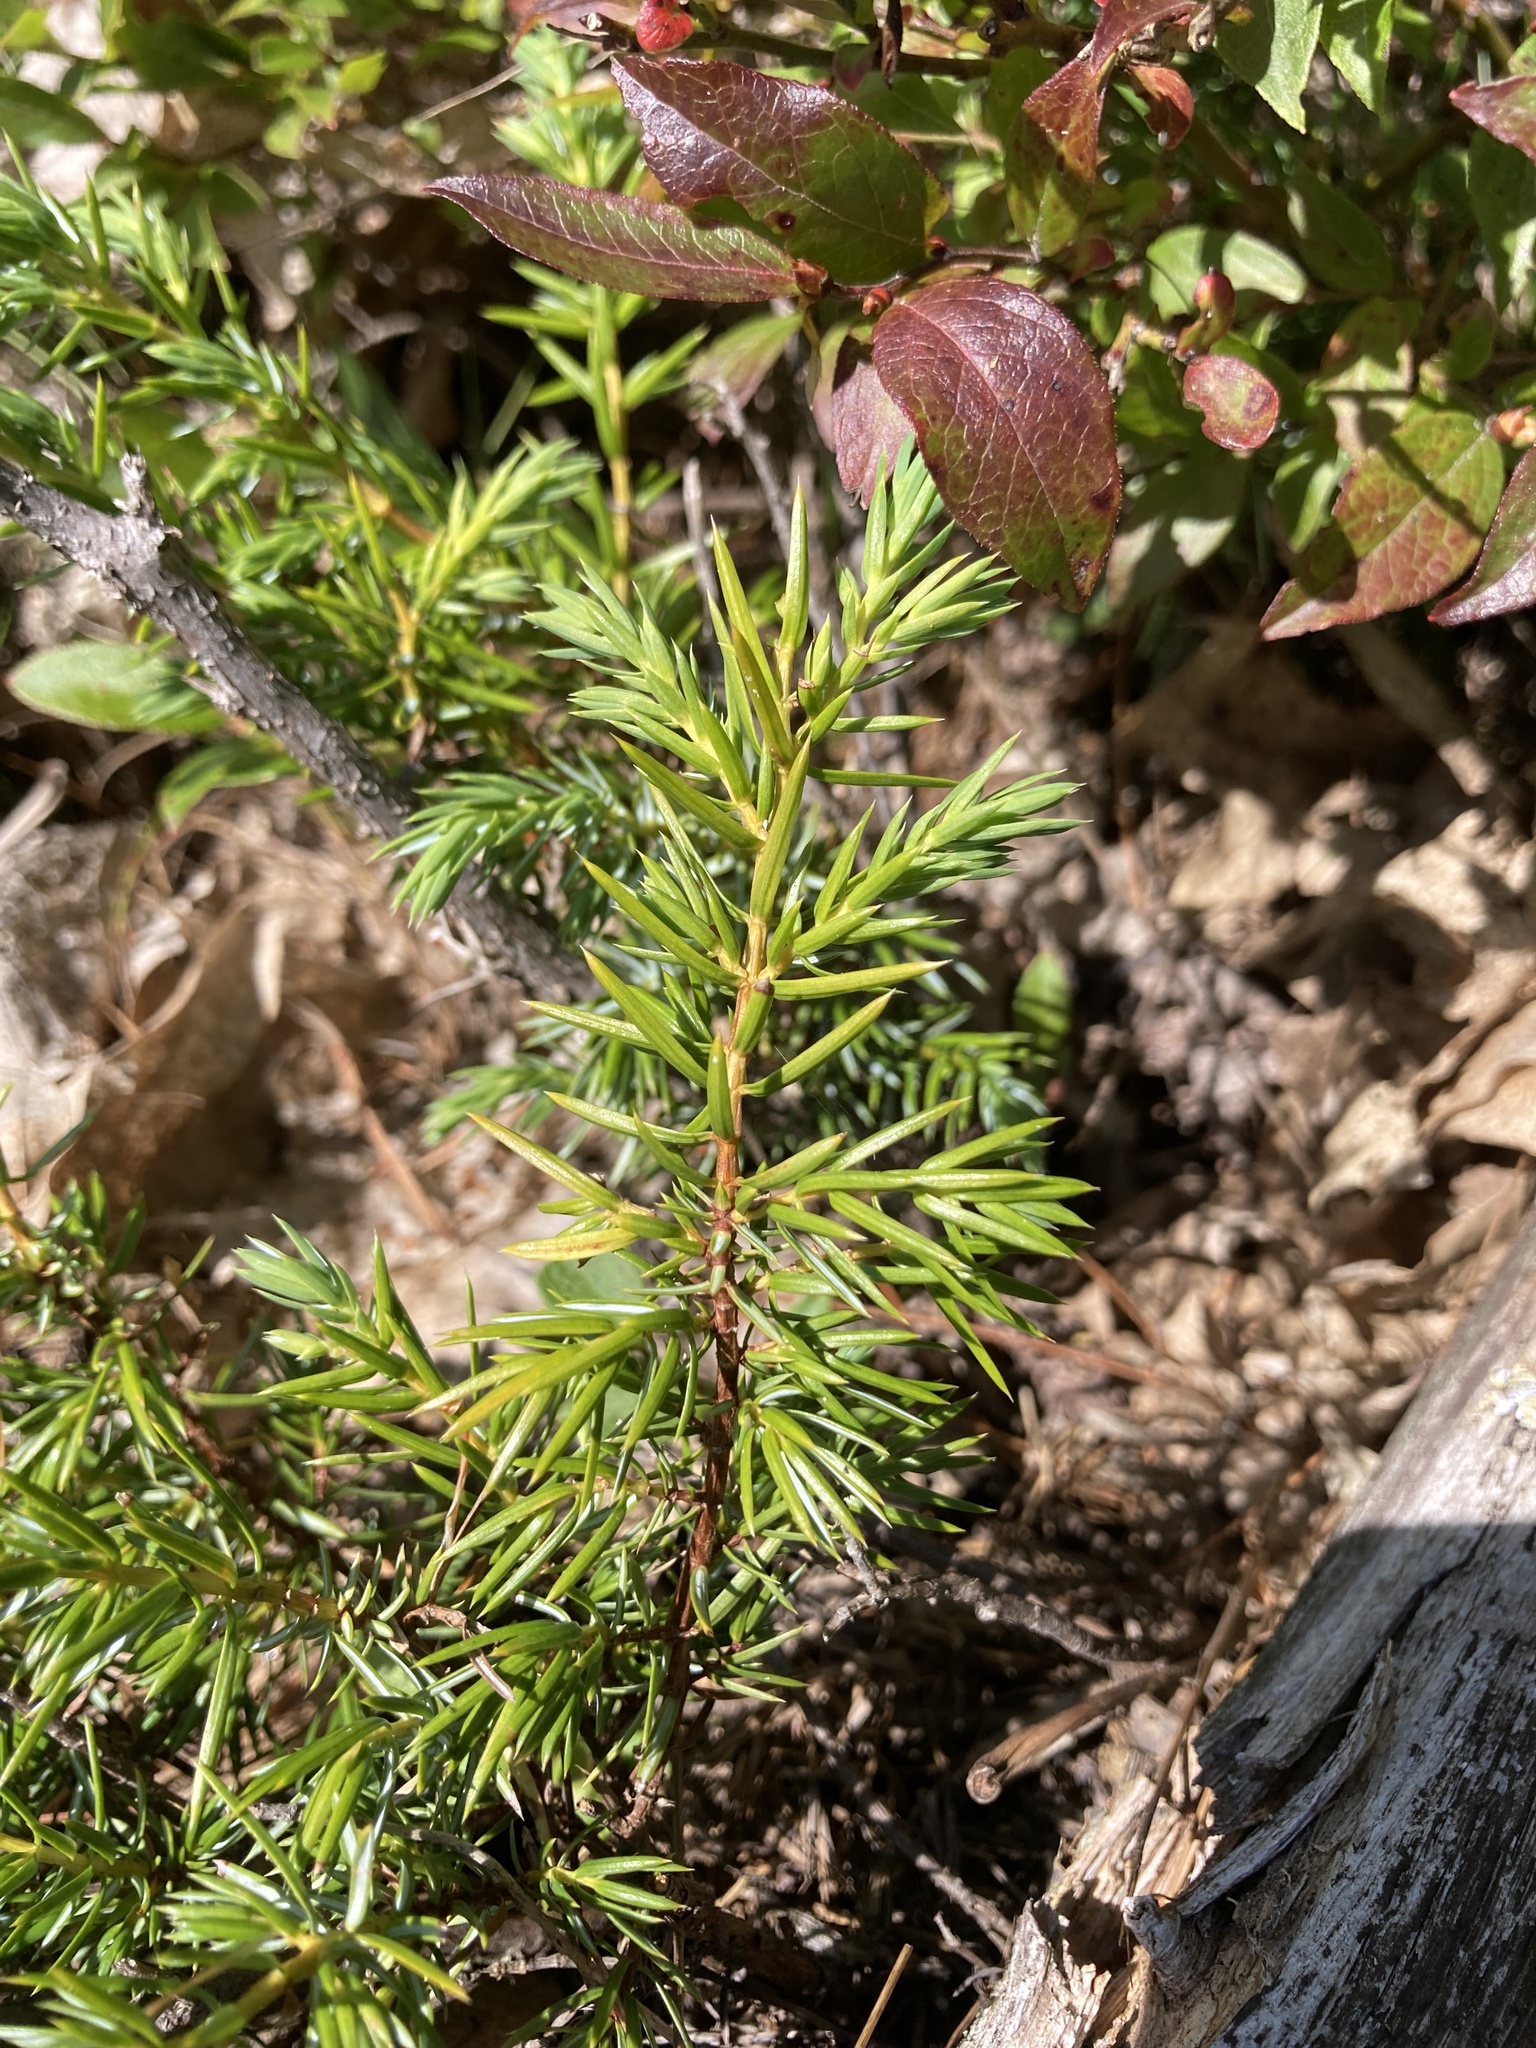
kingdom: Plantae
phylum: Tracheophyta
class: Pinopsida
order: Pinales
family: Cupressaceae
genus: Juniperus
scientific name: Juniperus communis
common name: Common juniper
